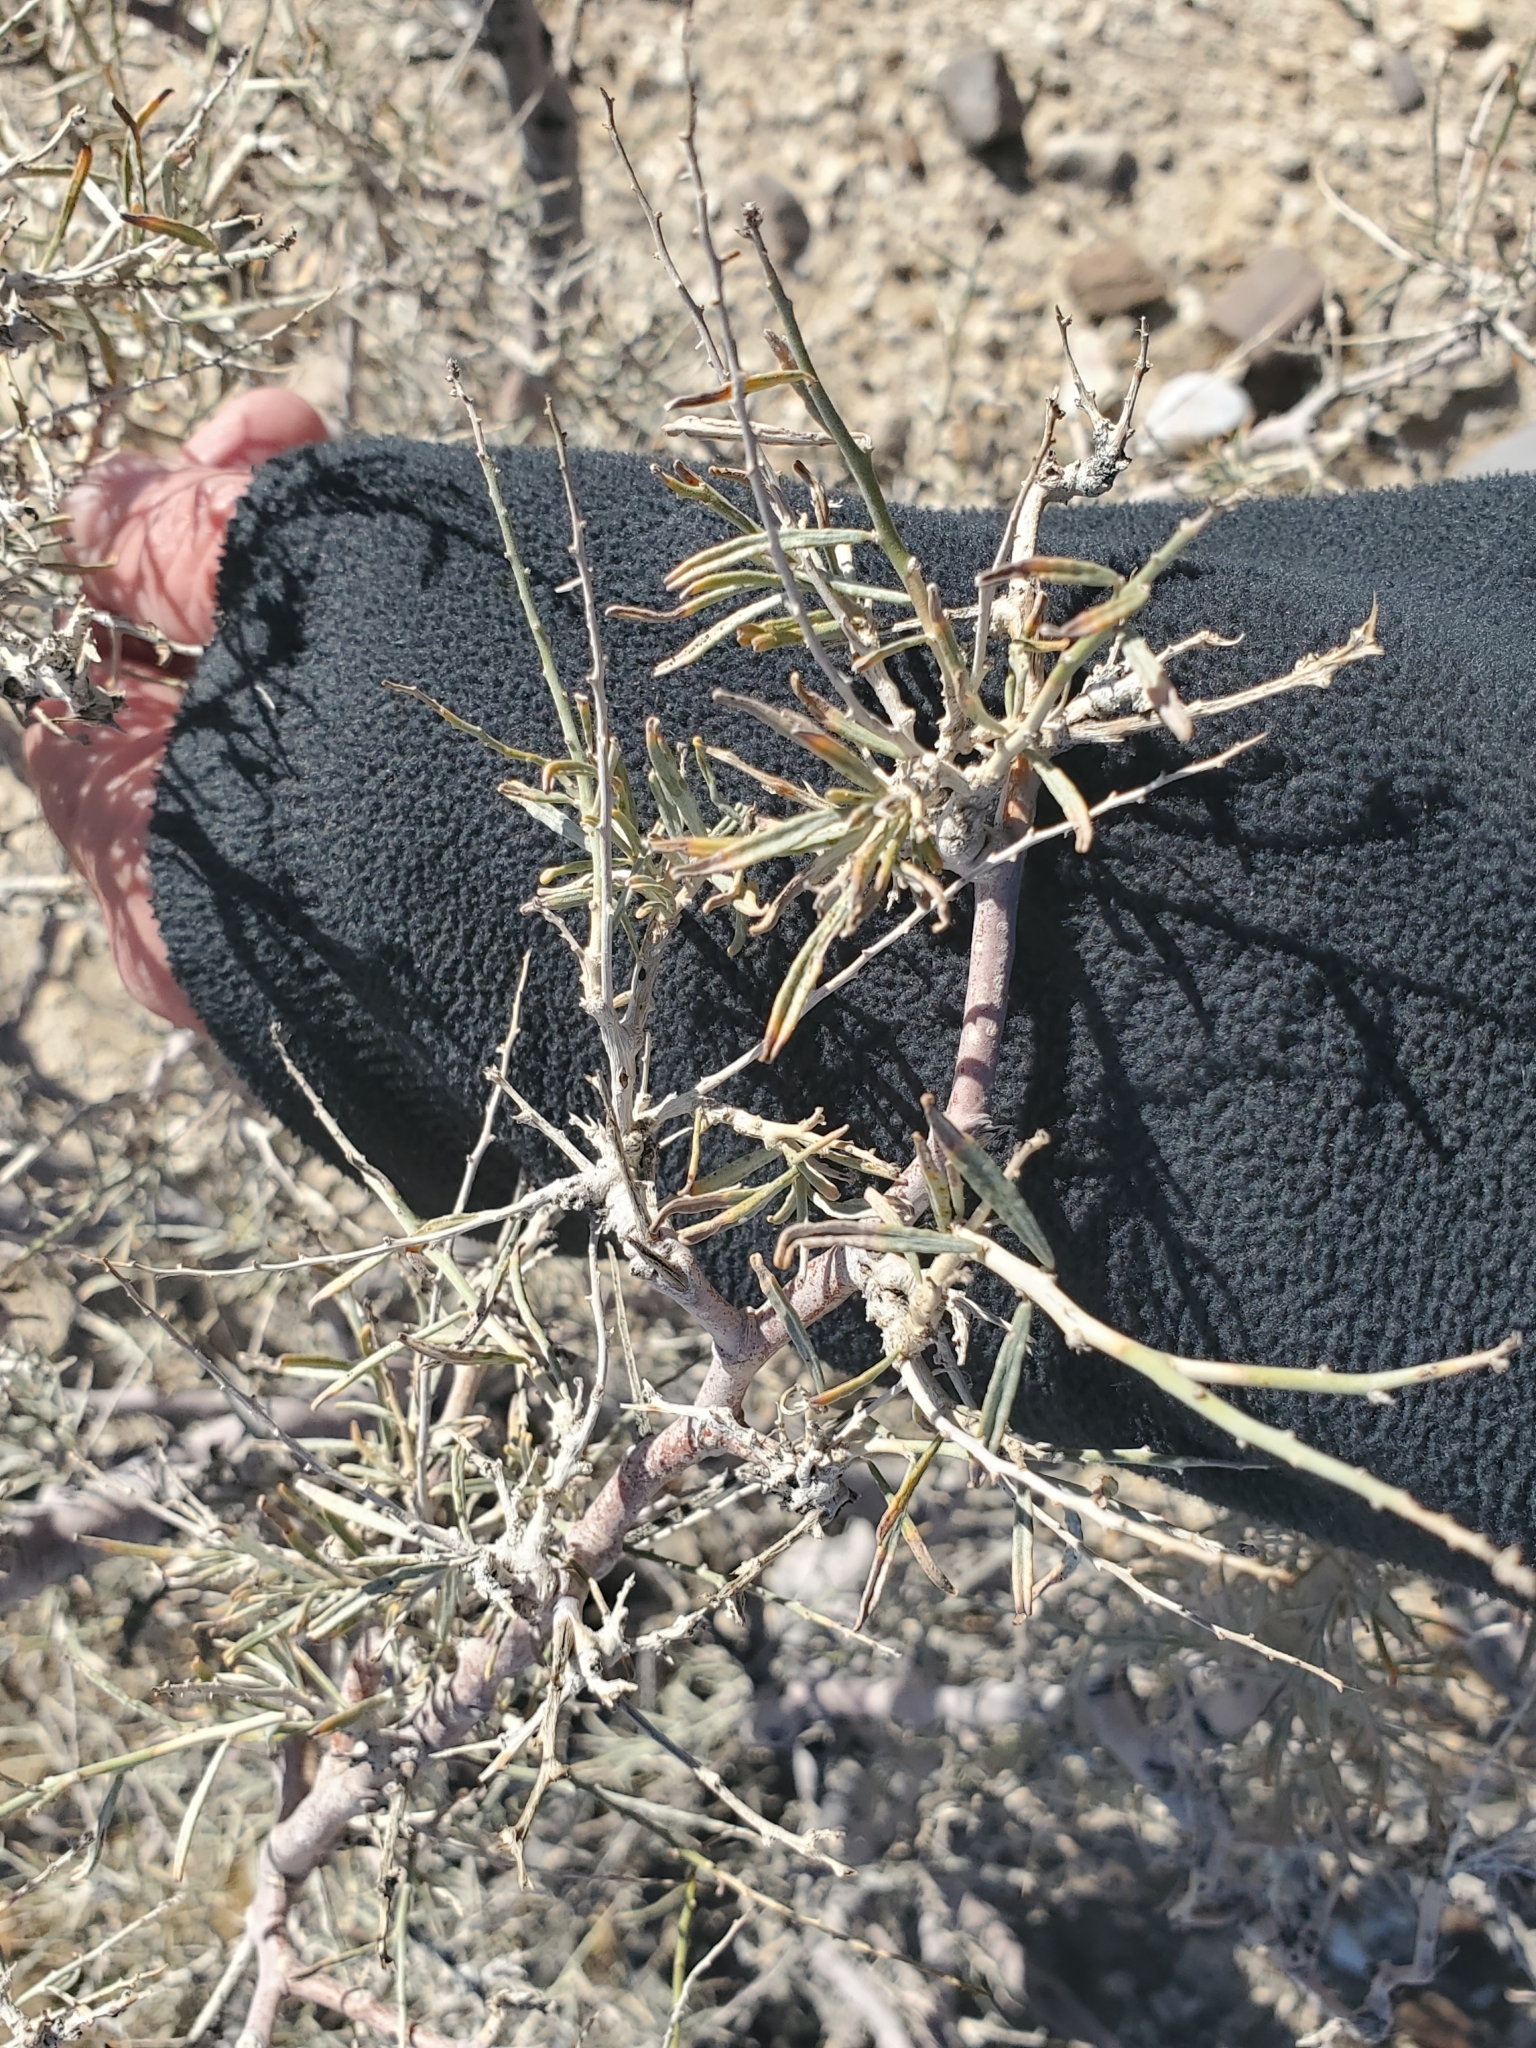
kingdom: Plantae
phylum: Tracheophyta
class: Magnoliopsida
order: Fabales
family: Fabaceae
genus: Psorothamnus
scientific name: Psorothamnus schottii
